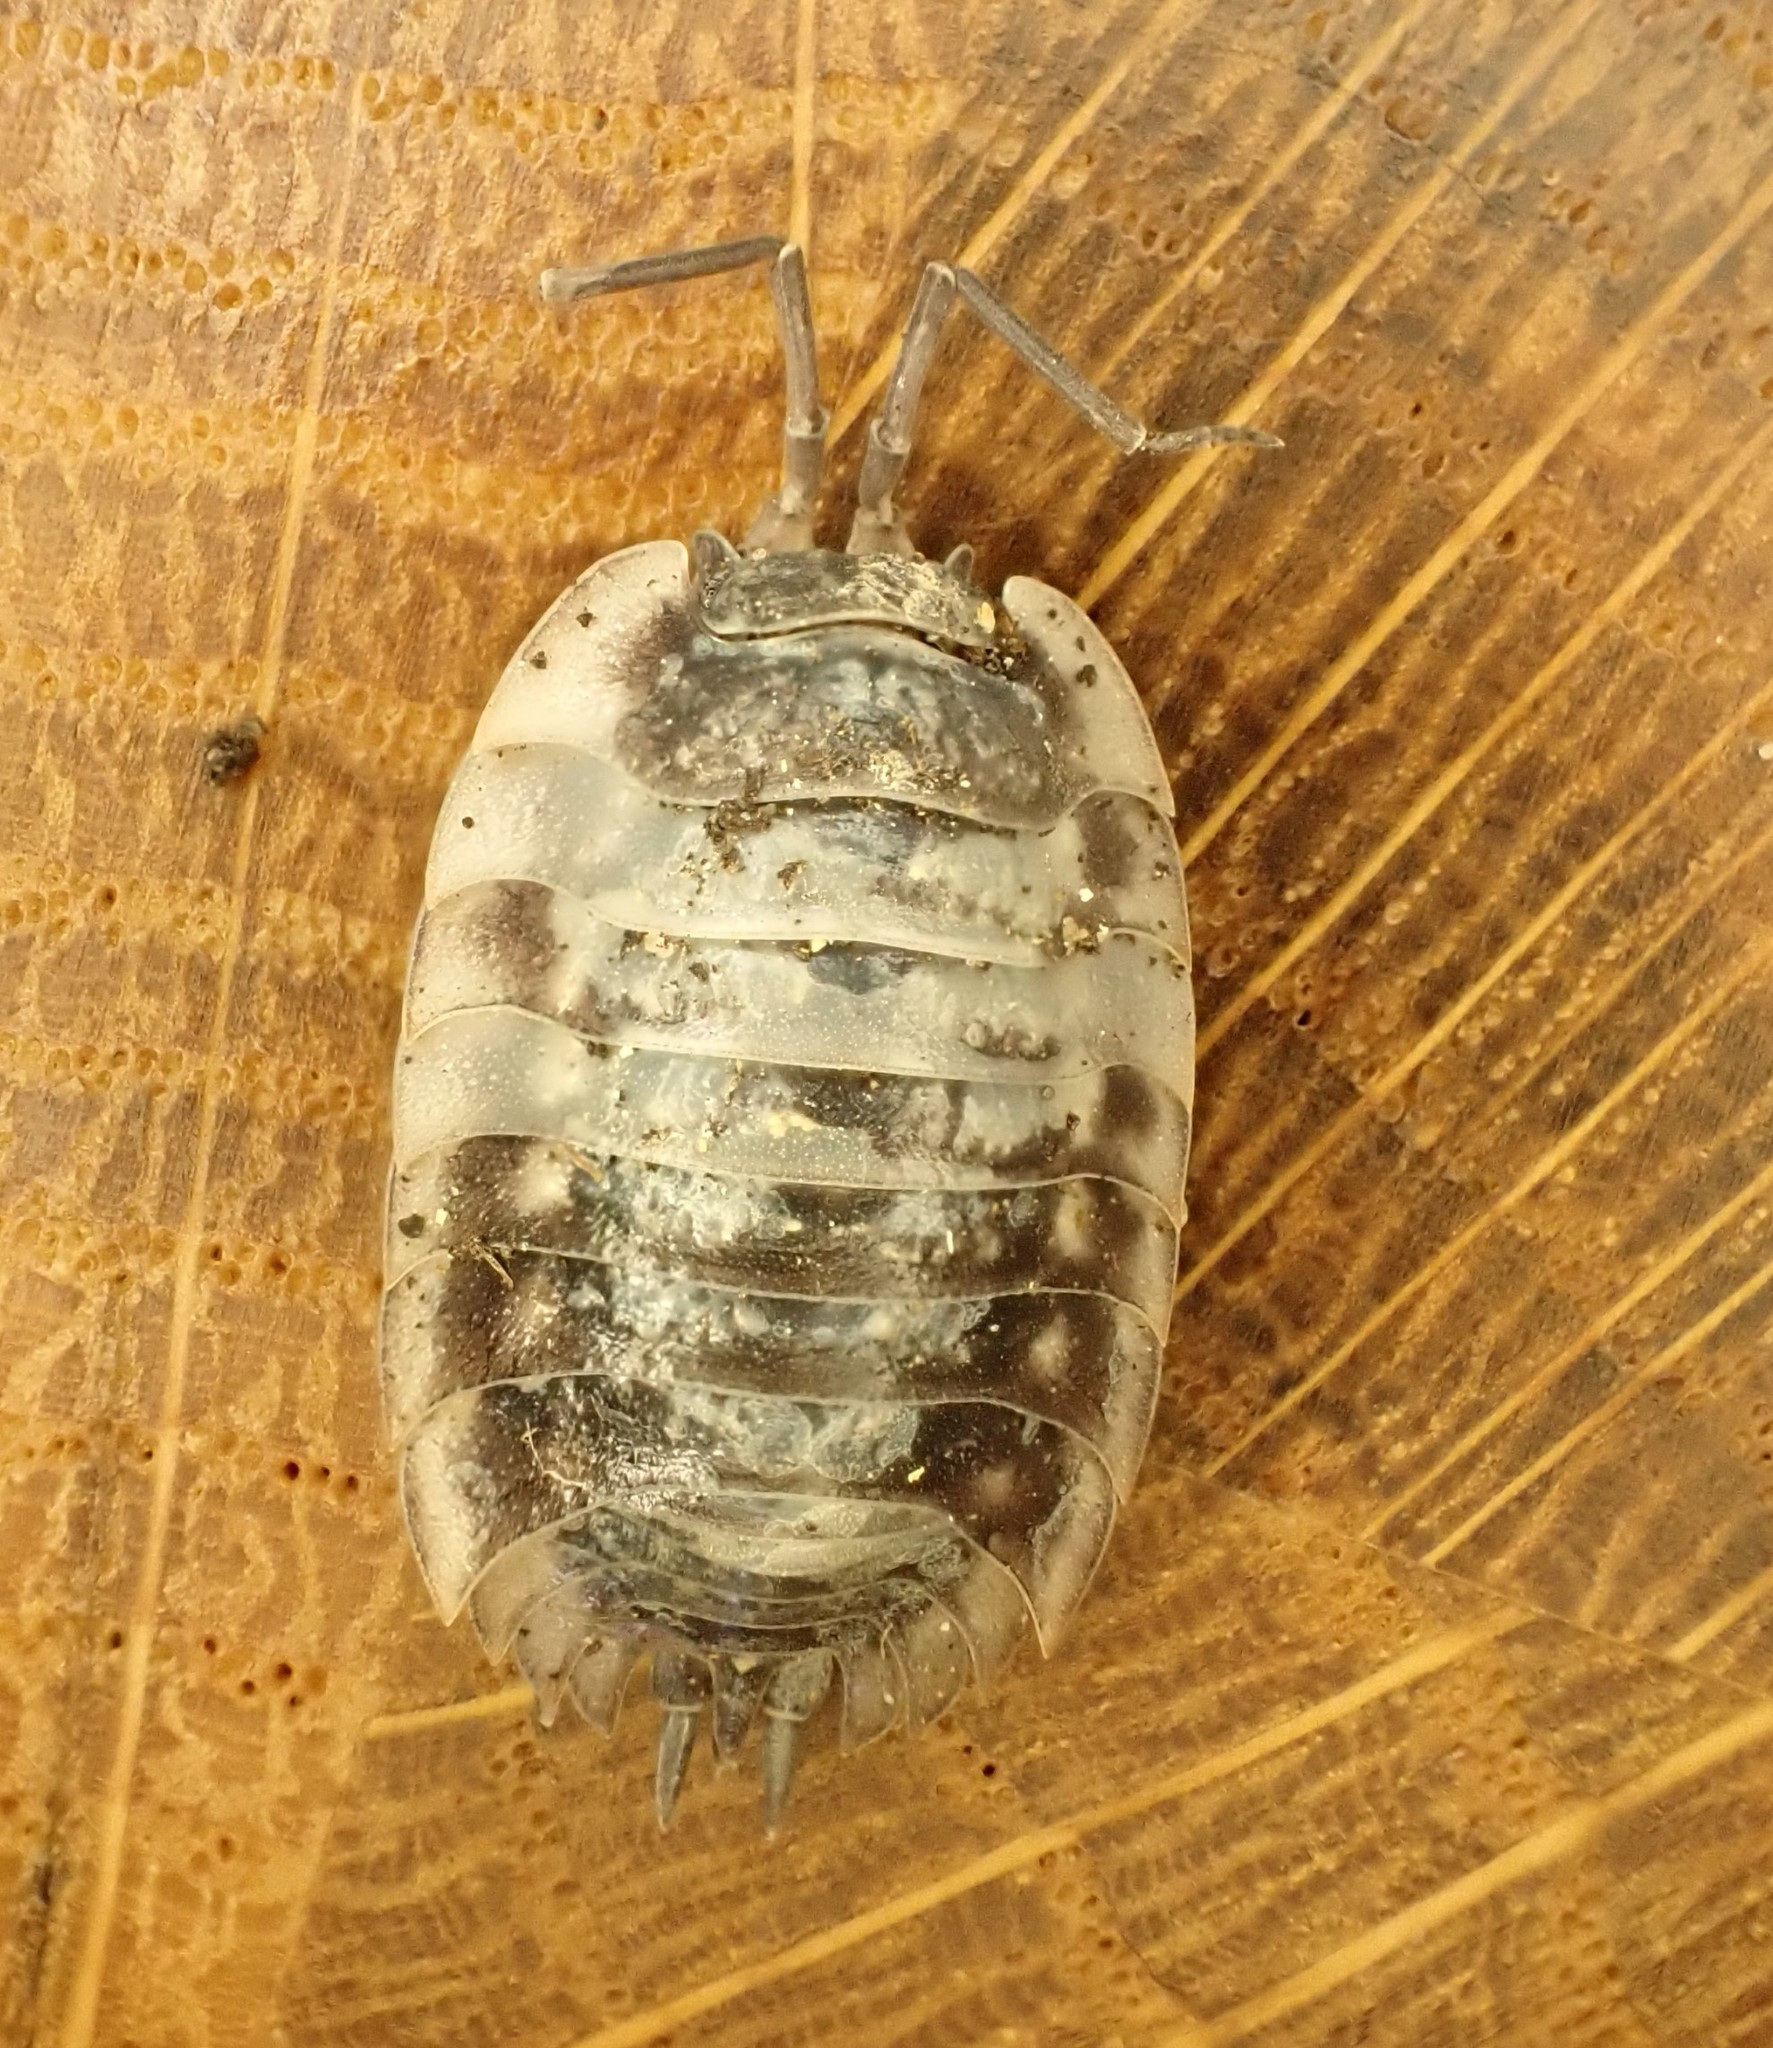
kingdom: Animalia
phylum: Arthropoda
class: Malacostraca
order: Isopoda
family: Oniscidae
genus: Oniscus
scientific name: Oniscus asellus
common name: Common shiny woodlouse
